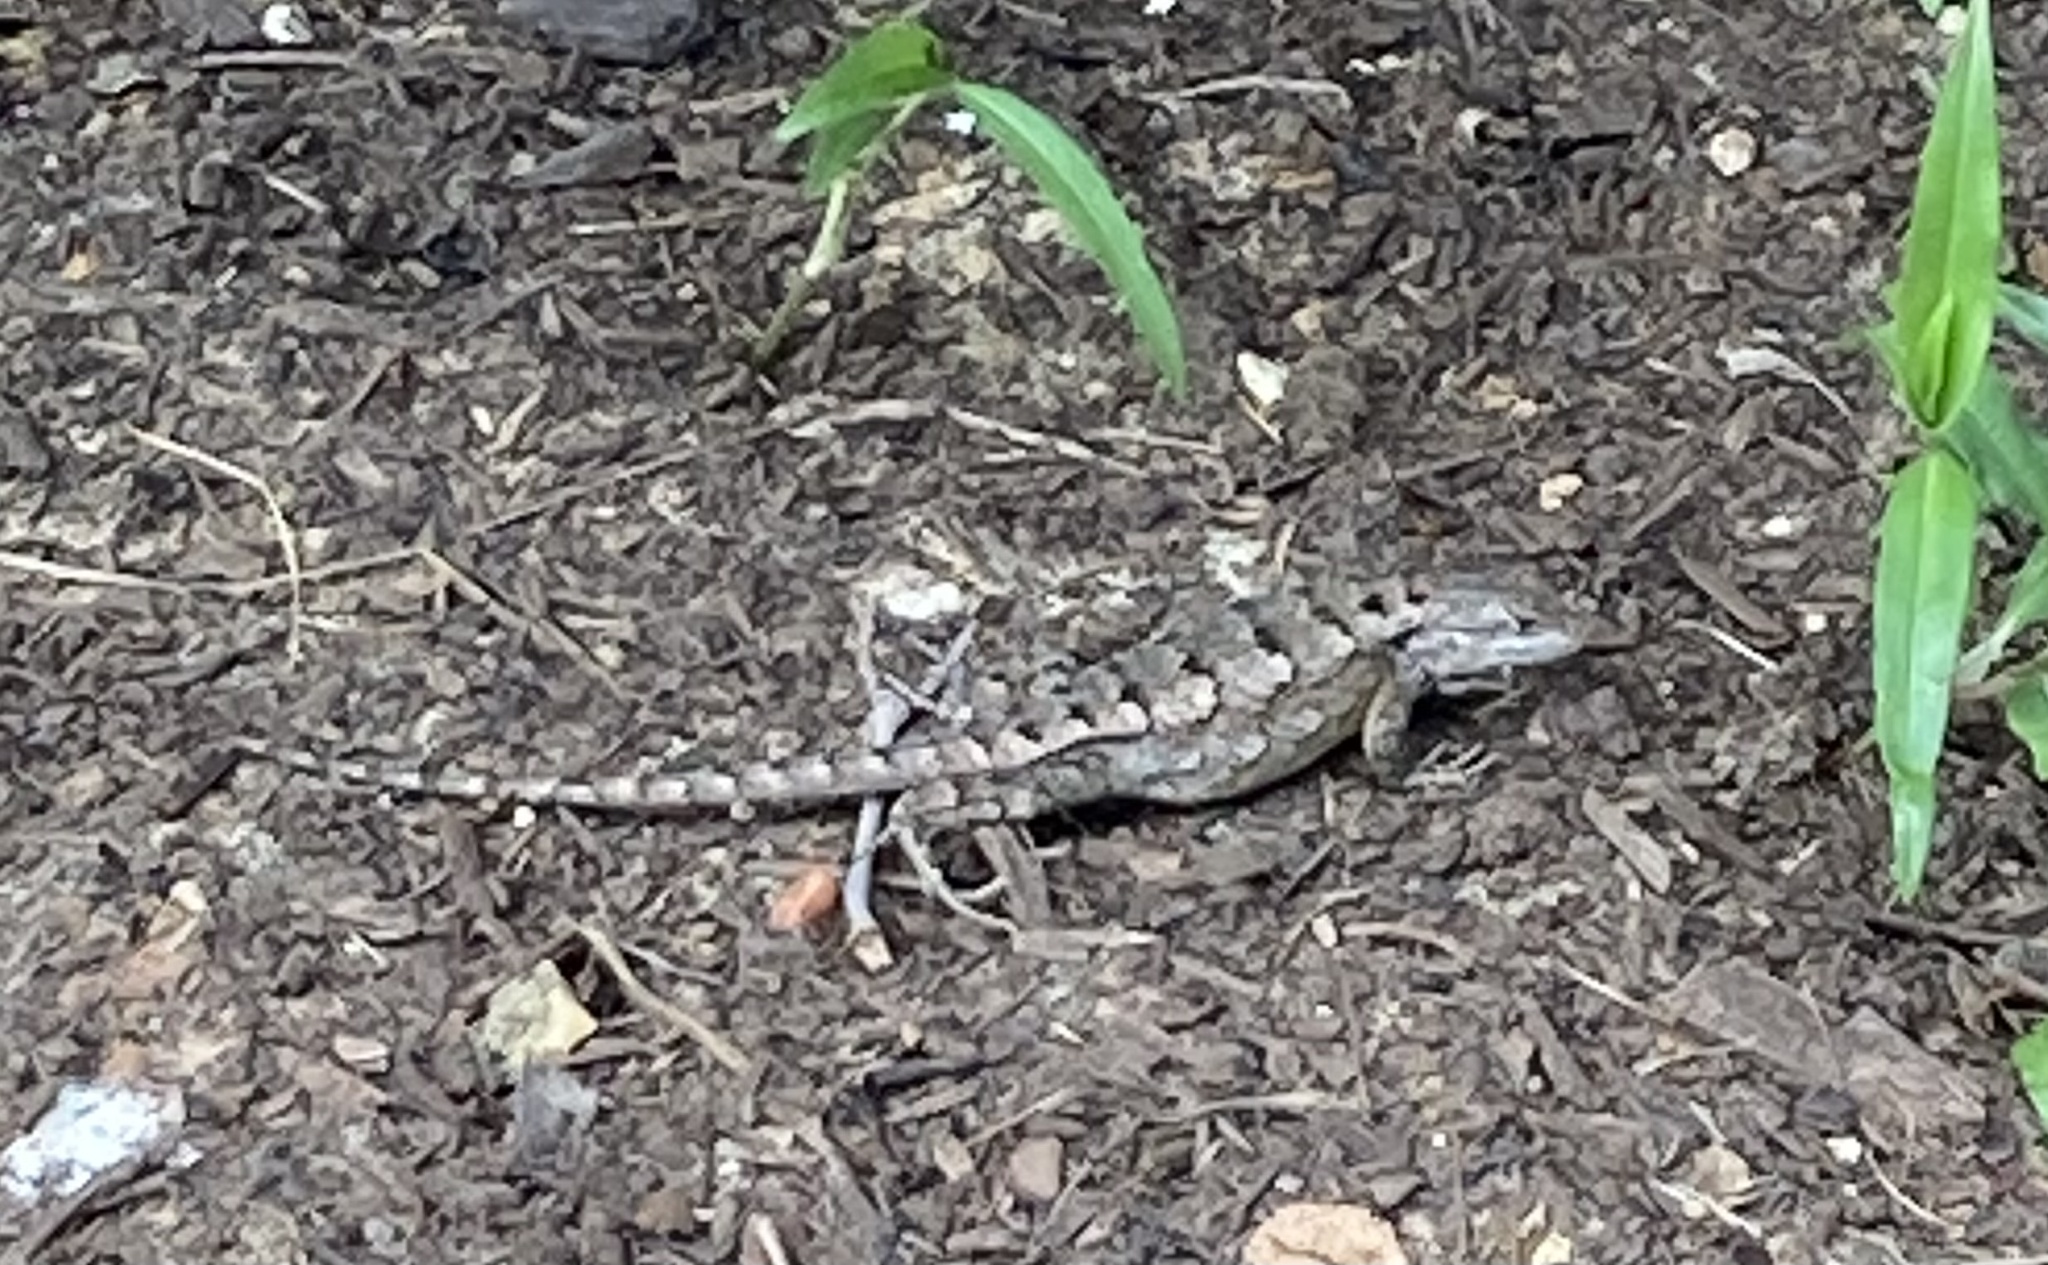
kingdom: Animalia
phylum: Chordata
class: Squamata
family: Phrynosomatidae
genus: Sceloporus
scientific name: Sceloporus olivaceus
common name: Texas spiny lizard
